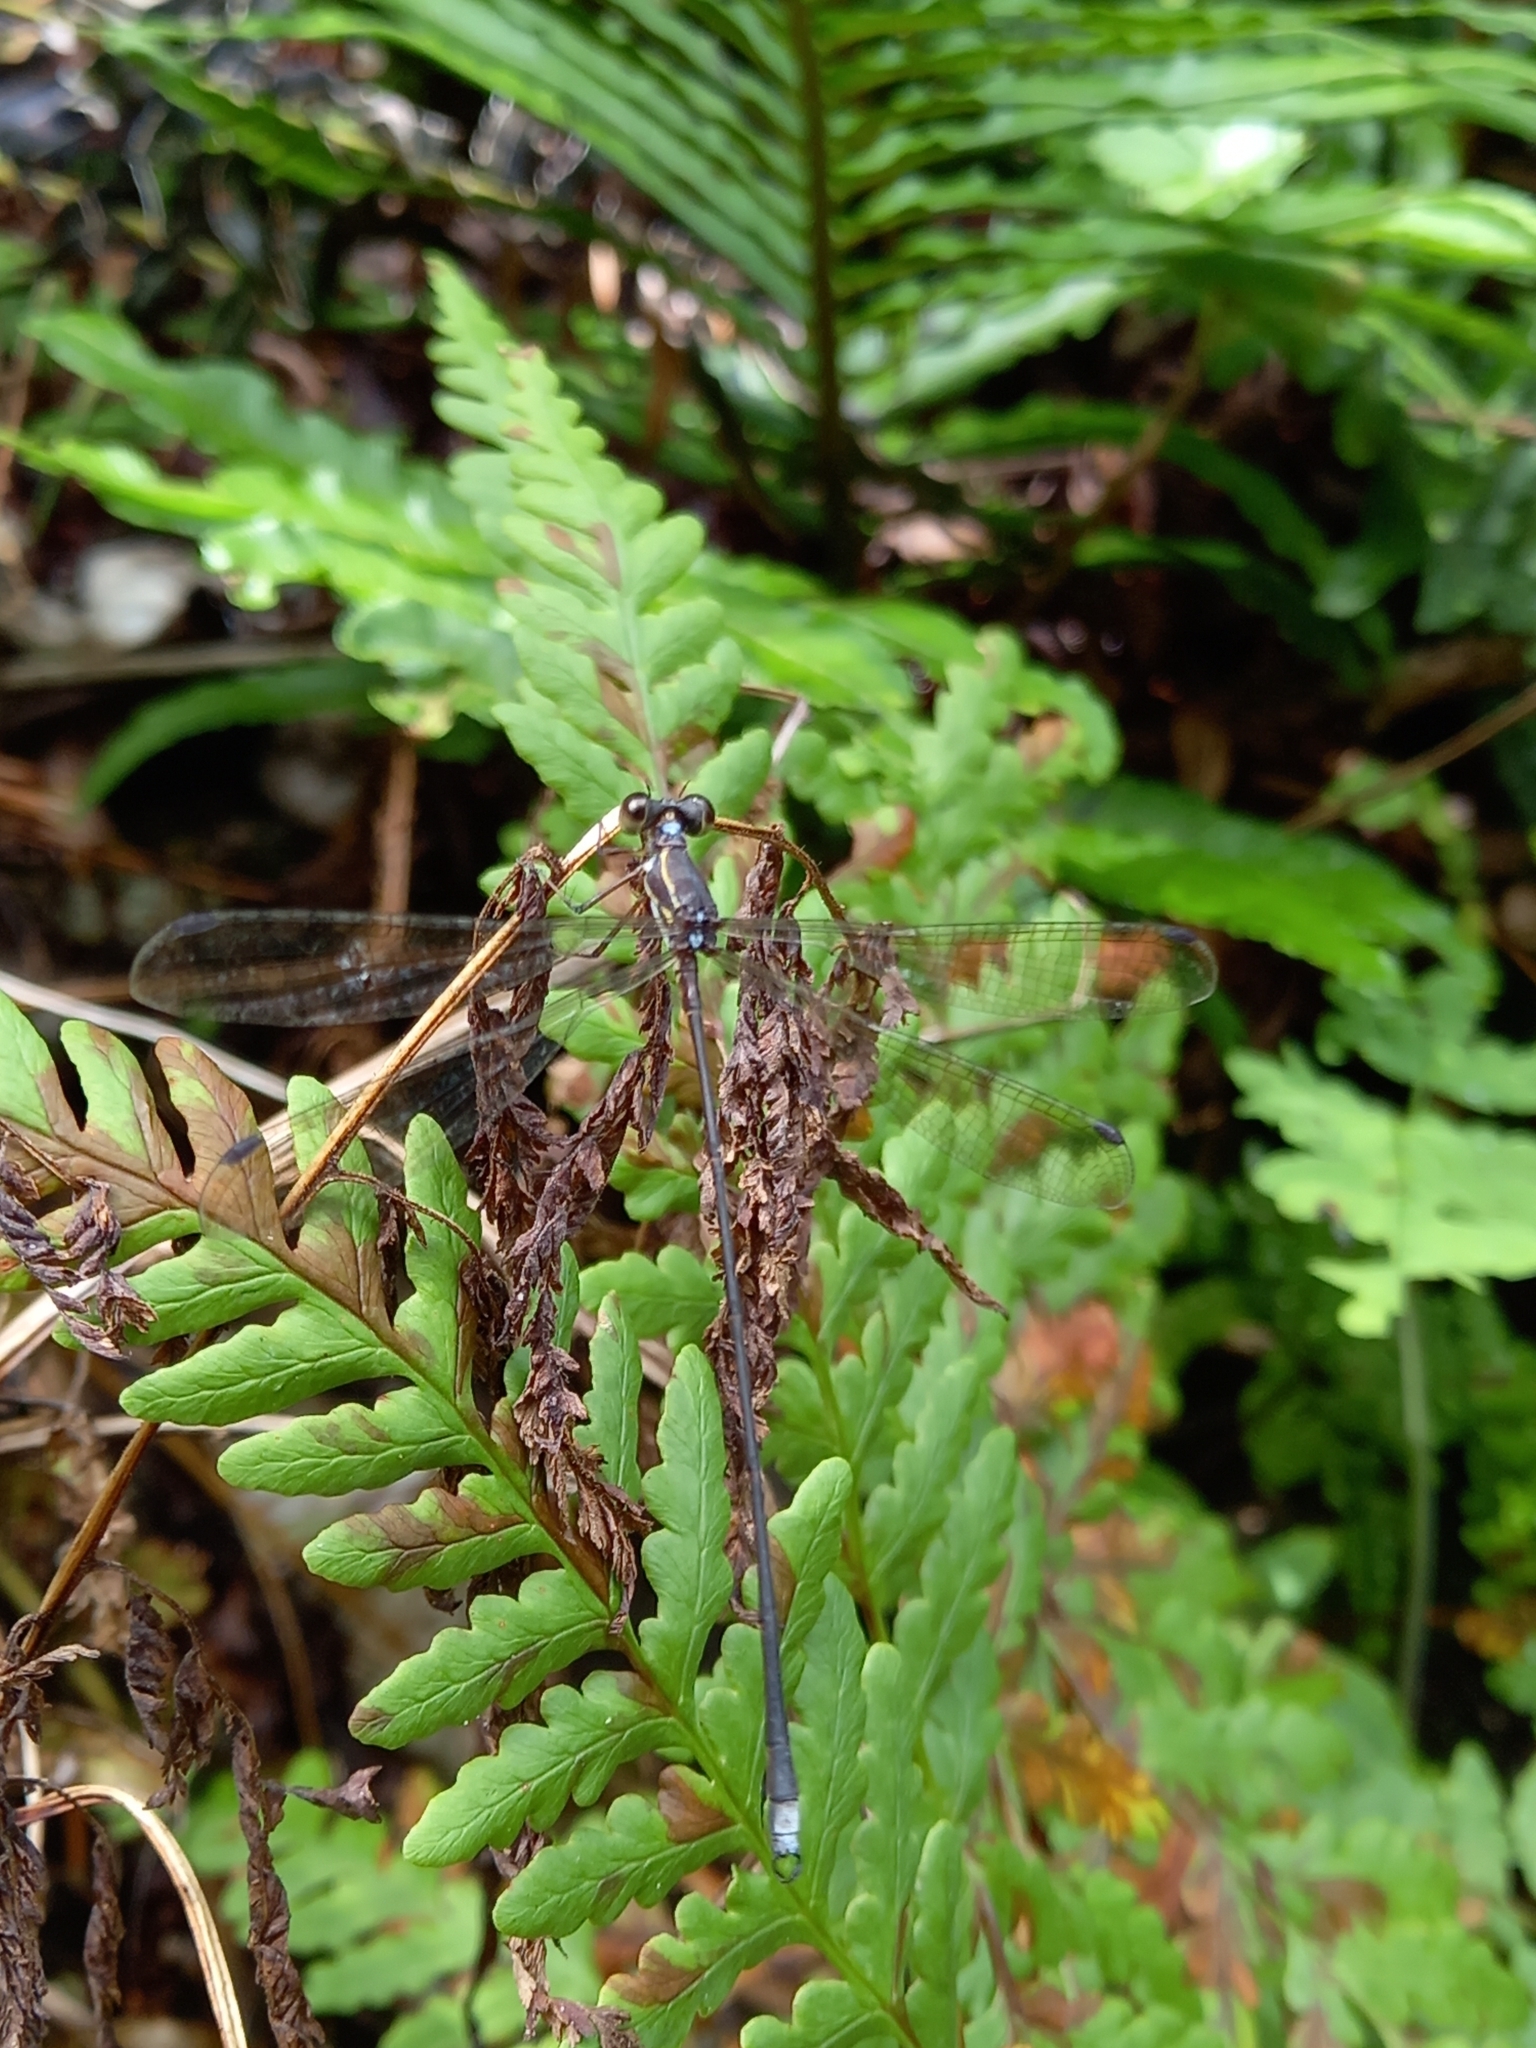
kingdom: Animalia
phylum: Arthropoda
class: Insecta
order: Odonata
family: Synlestidae
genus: Ecchlorolestes
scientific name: Ecchlorolestes nylephtha
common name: Queen malachite
